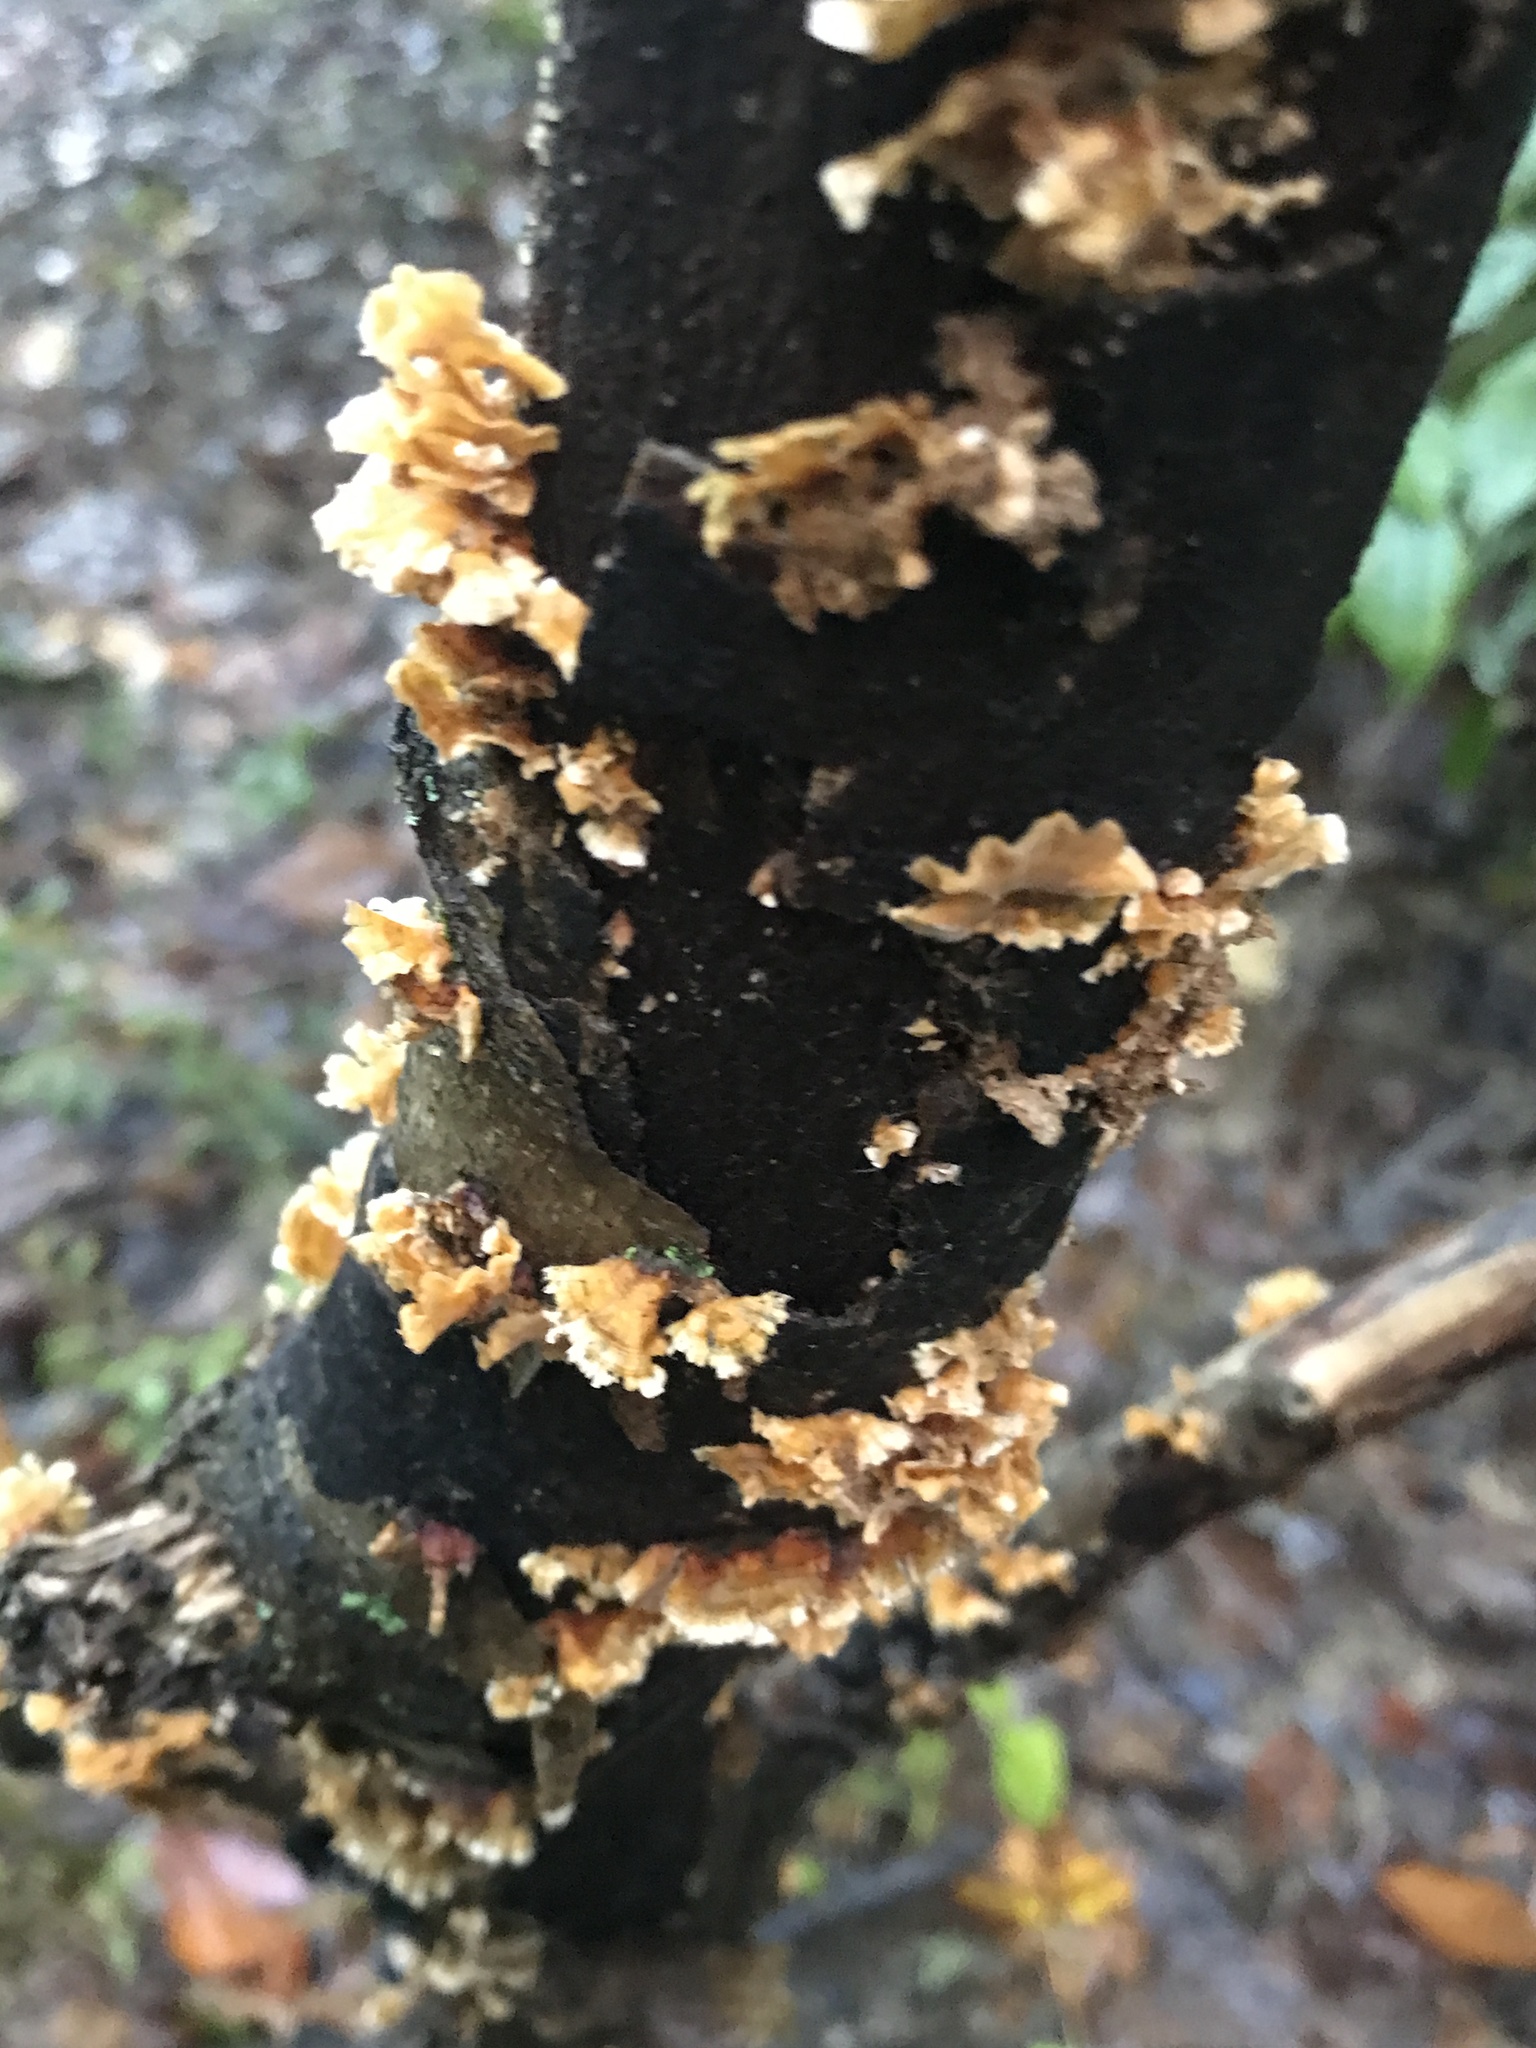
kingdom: Fungi
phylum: Basidiomycota
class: Agaricomycetes
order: Russulales
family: Stereaceae
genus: Stereum
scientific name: Stereum complicatum
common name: Crowded parchment
